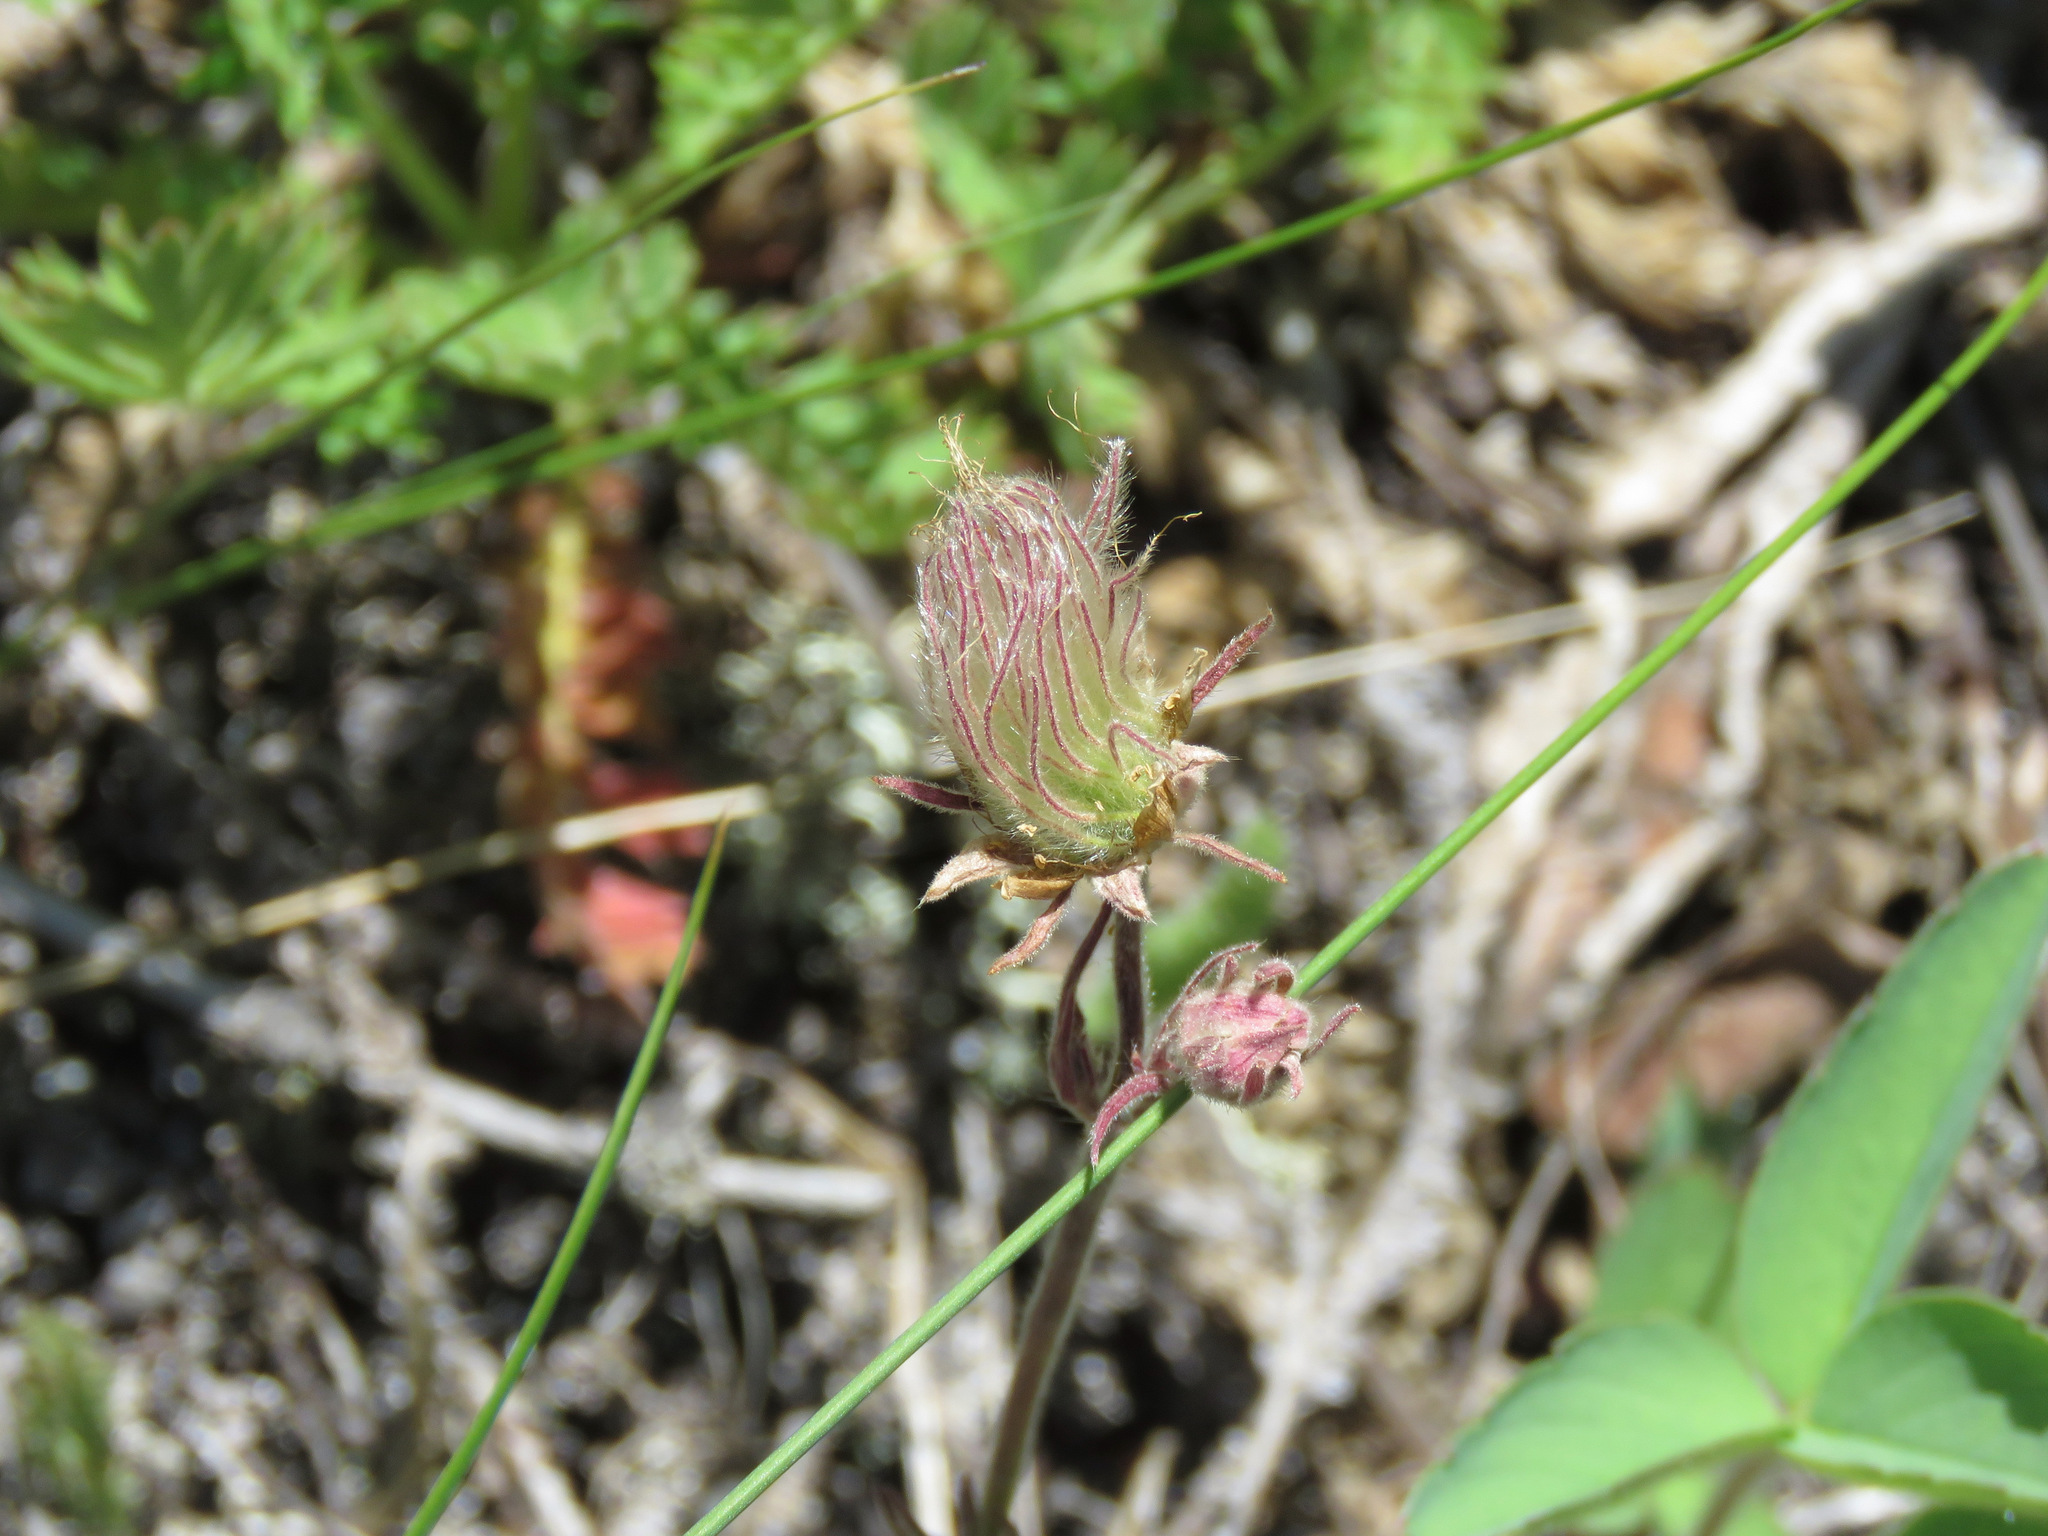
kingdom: Plantae
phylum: Tracheophyta
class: Magnoliopsida
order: Rosales
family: Rosaceae
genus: Geum
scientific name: Geum triflorum
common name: Old man's whiskers
